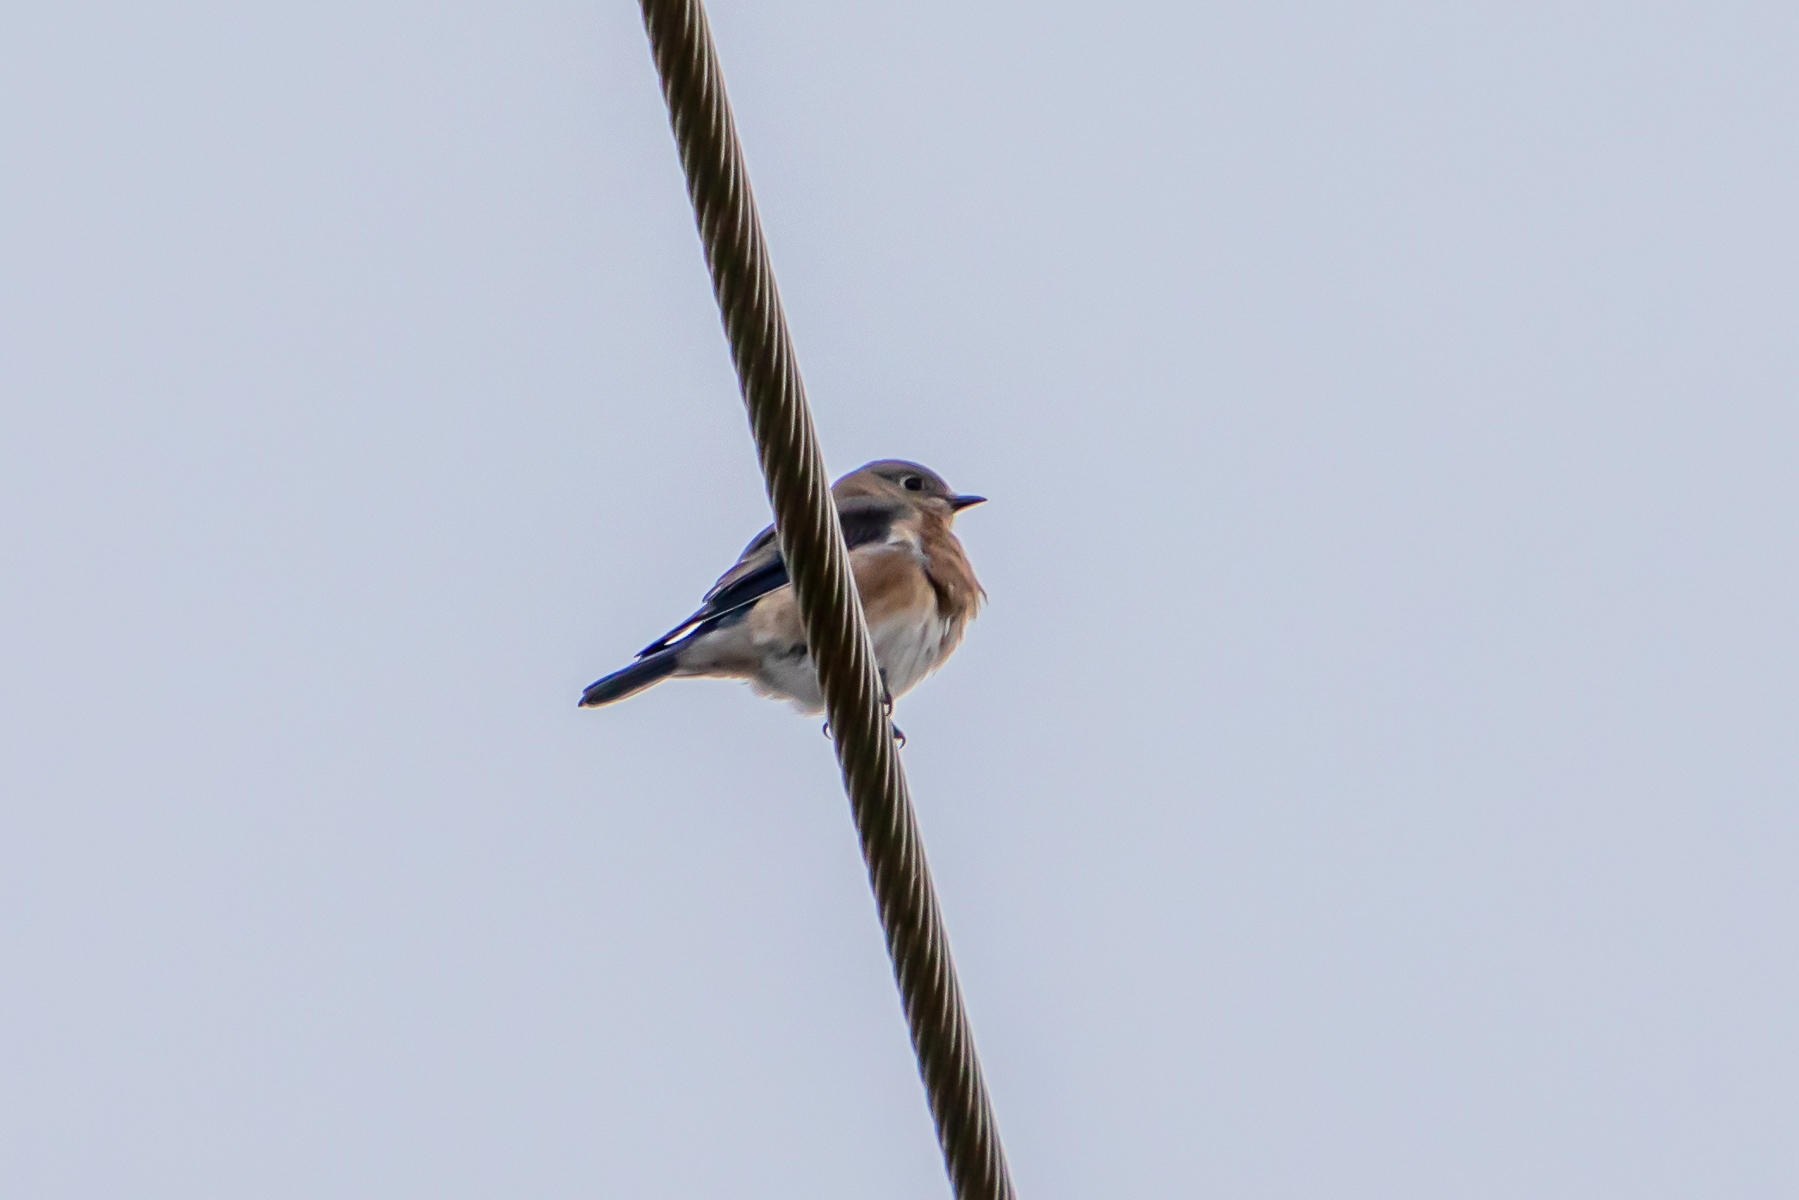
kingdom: Animalia
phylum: Chordata
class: Aves
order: Passeriformes
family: Turdidae
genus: Sialia
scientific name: Sialia sialis
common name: Eastern bluebird
